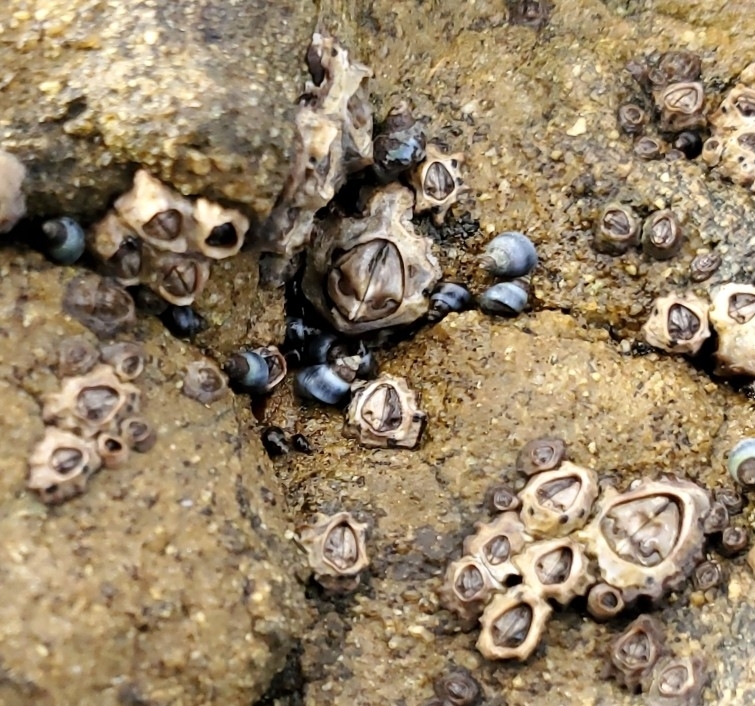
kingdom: Animalia
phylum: Arthropoda
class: Maxillopoda
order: Sessilia
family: Chthamalidae
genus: Chamaesipho
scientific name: Chamaesipho brunnea
